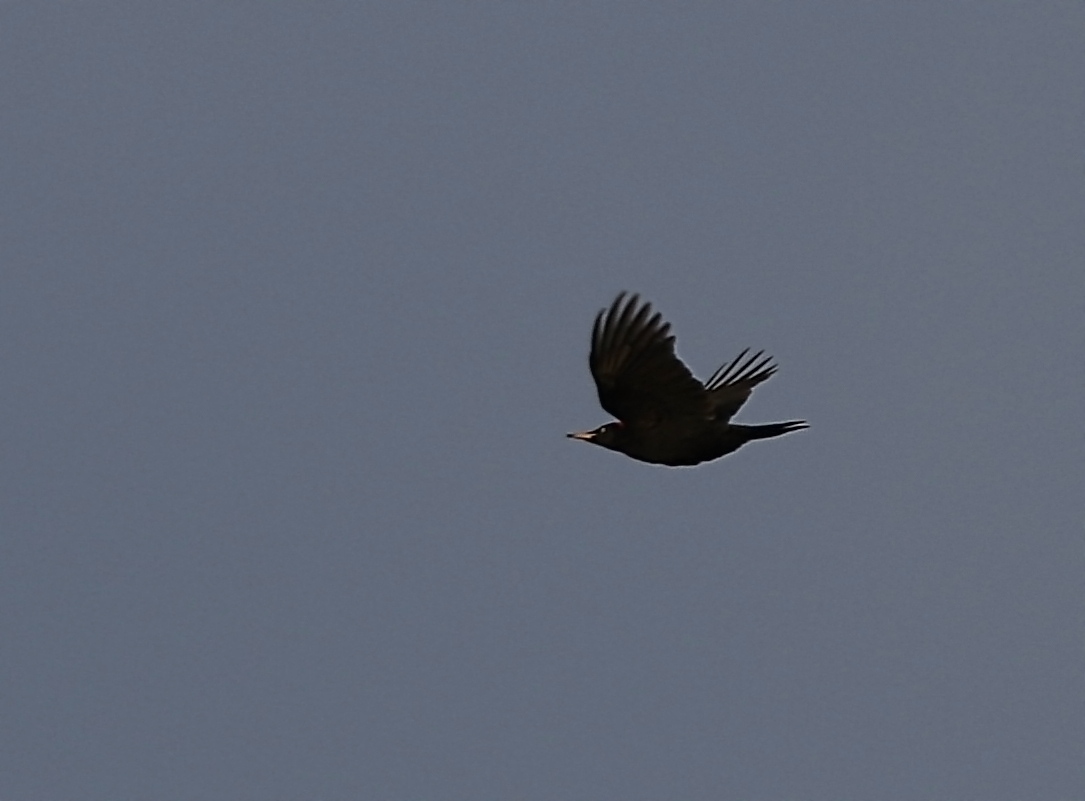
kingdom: Animalia
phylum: Chordata
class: Aves
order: Piciformes
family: Picidae
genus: Dryocopus
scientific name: Dryocopus martius
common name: Black woodpecker
